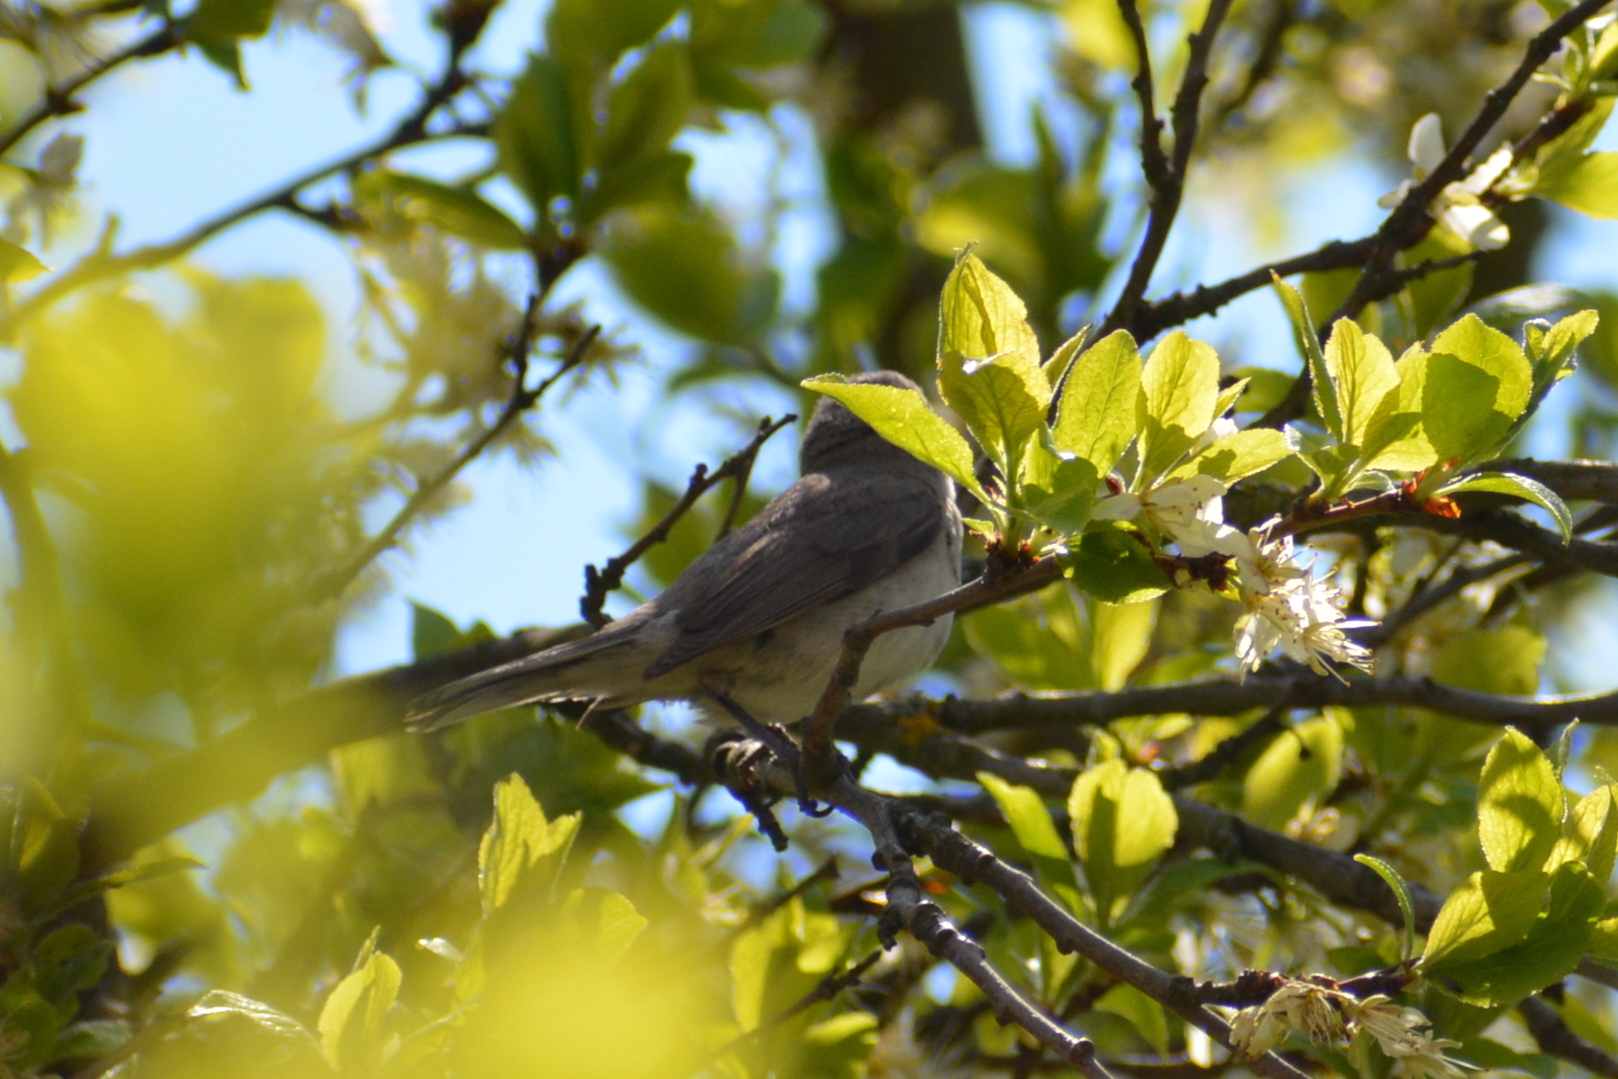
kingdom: Animalia
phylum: Chordata
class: Aves
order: Passeriformes
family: Sylviidae
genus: Sylvia
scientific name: Sylvia curruca
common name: Lesser whitethroat
